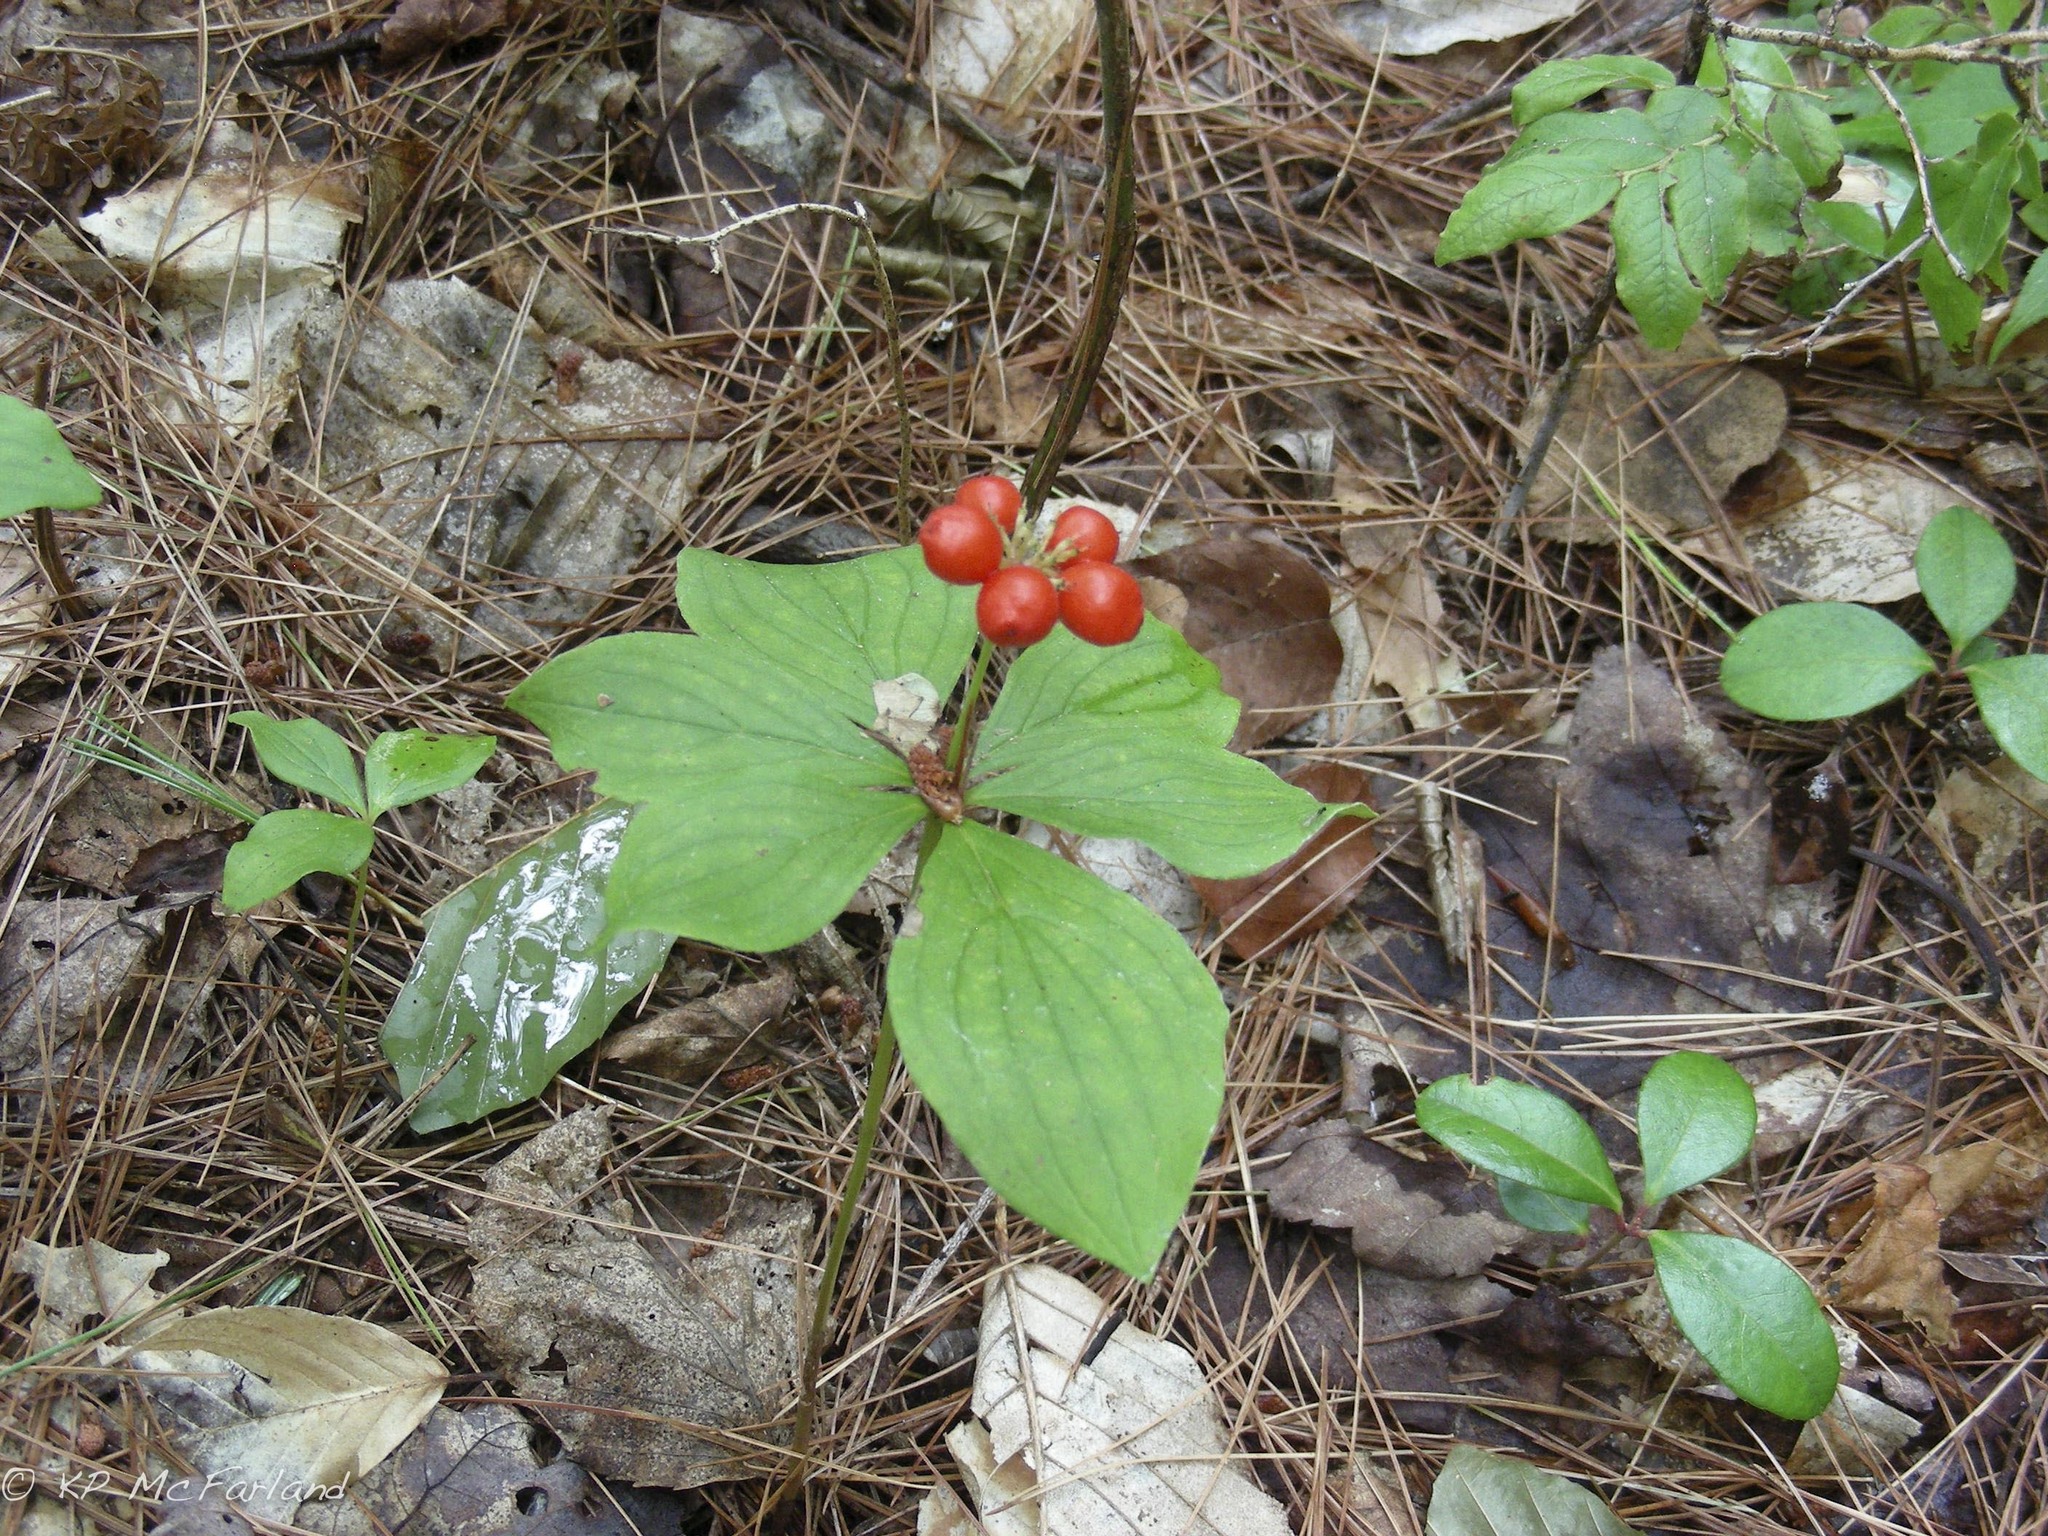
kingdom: Plantae
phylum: Tracheophyta
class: Magnoliopsida
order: Cornales
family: Cornaceae
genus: Cornus
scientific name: Cornus canadensis
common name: Creeping dogwood
